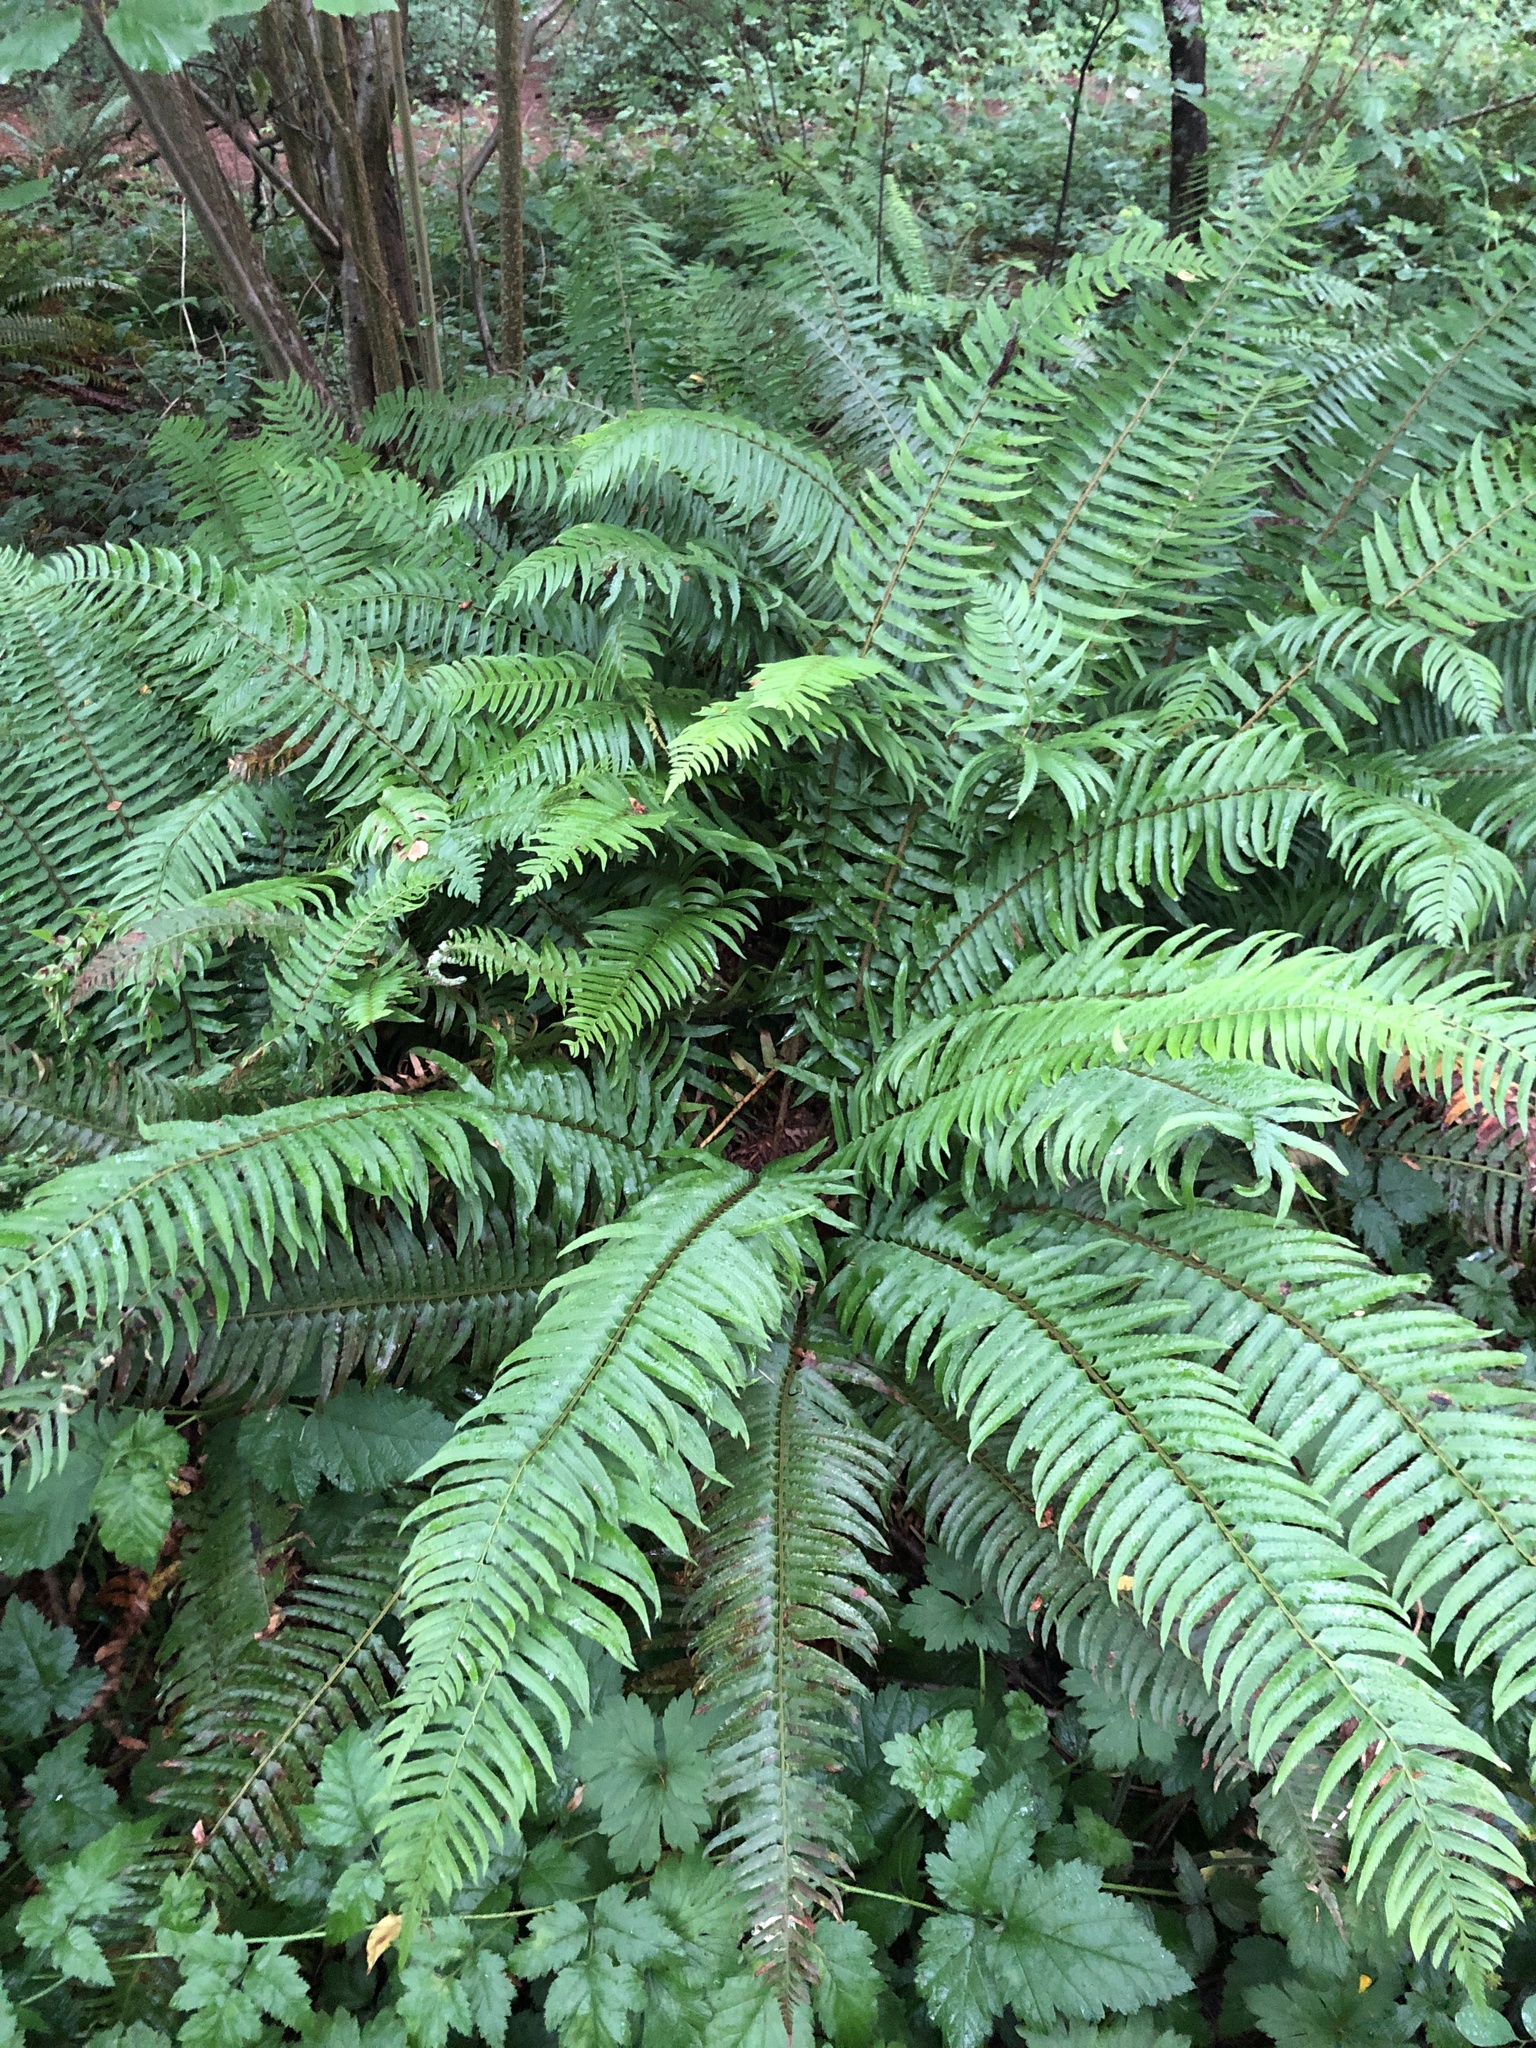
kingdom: Plantae
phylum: Tracheophyta
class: Polypodiopsida
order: Polypodiales
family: Dryopteridaceae
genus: Polystichum
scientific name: Polystichum munitum
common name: Western sword-fern
